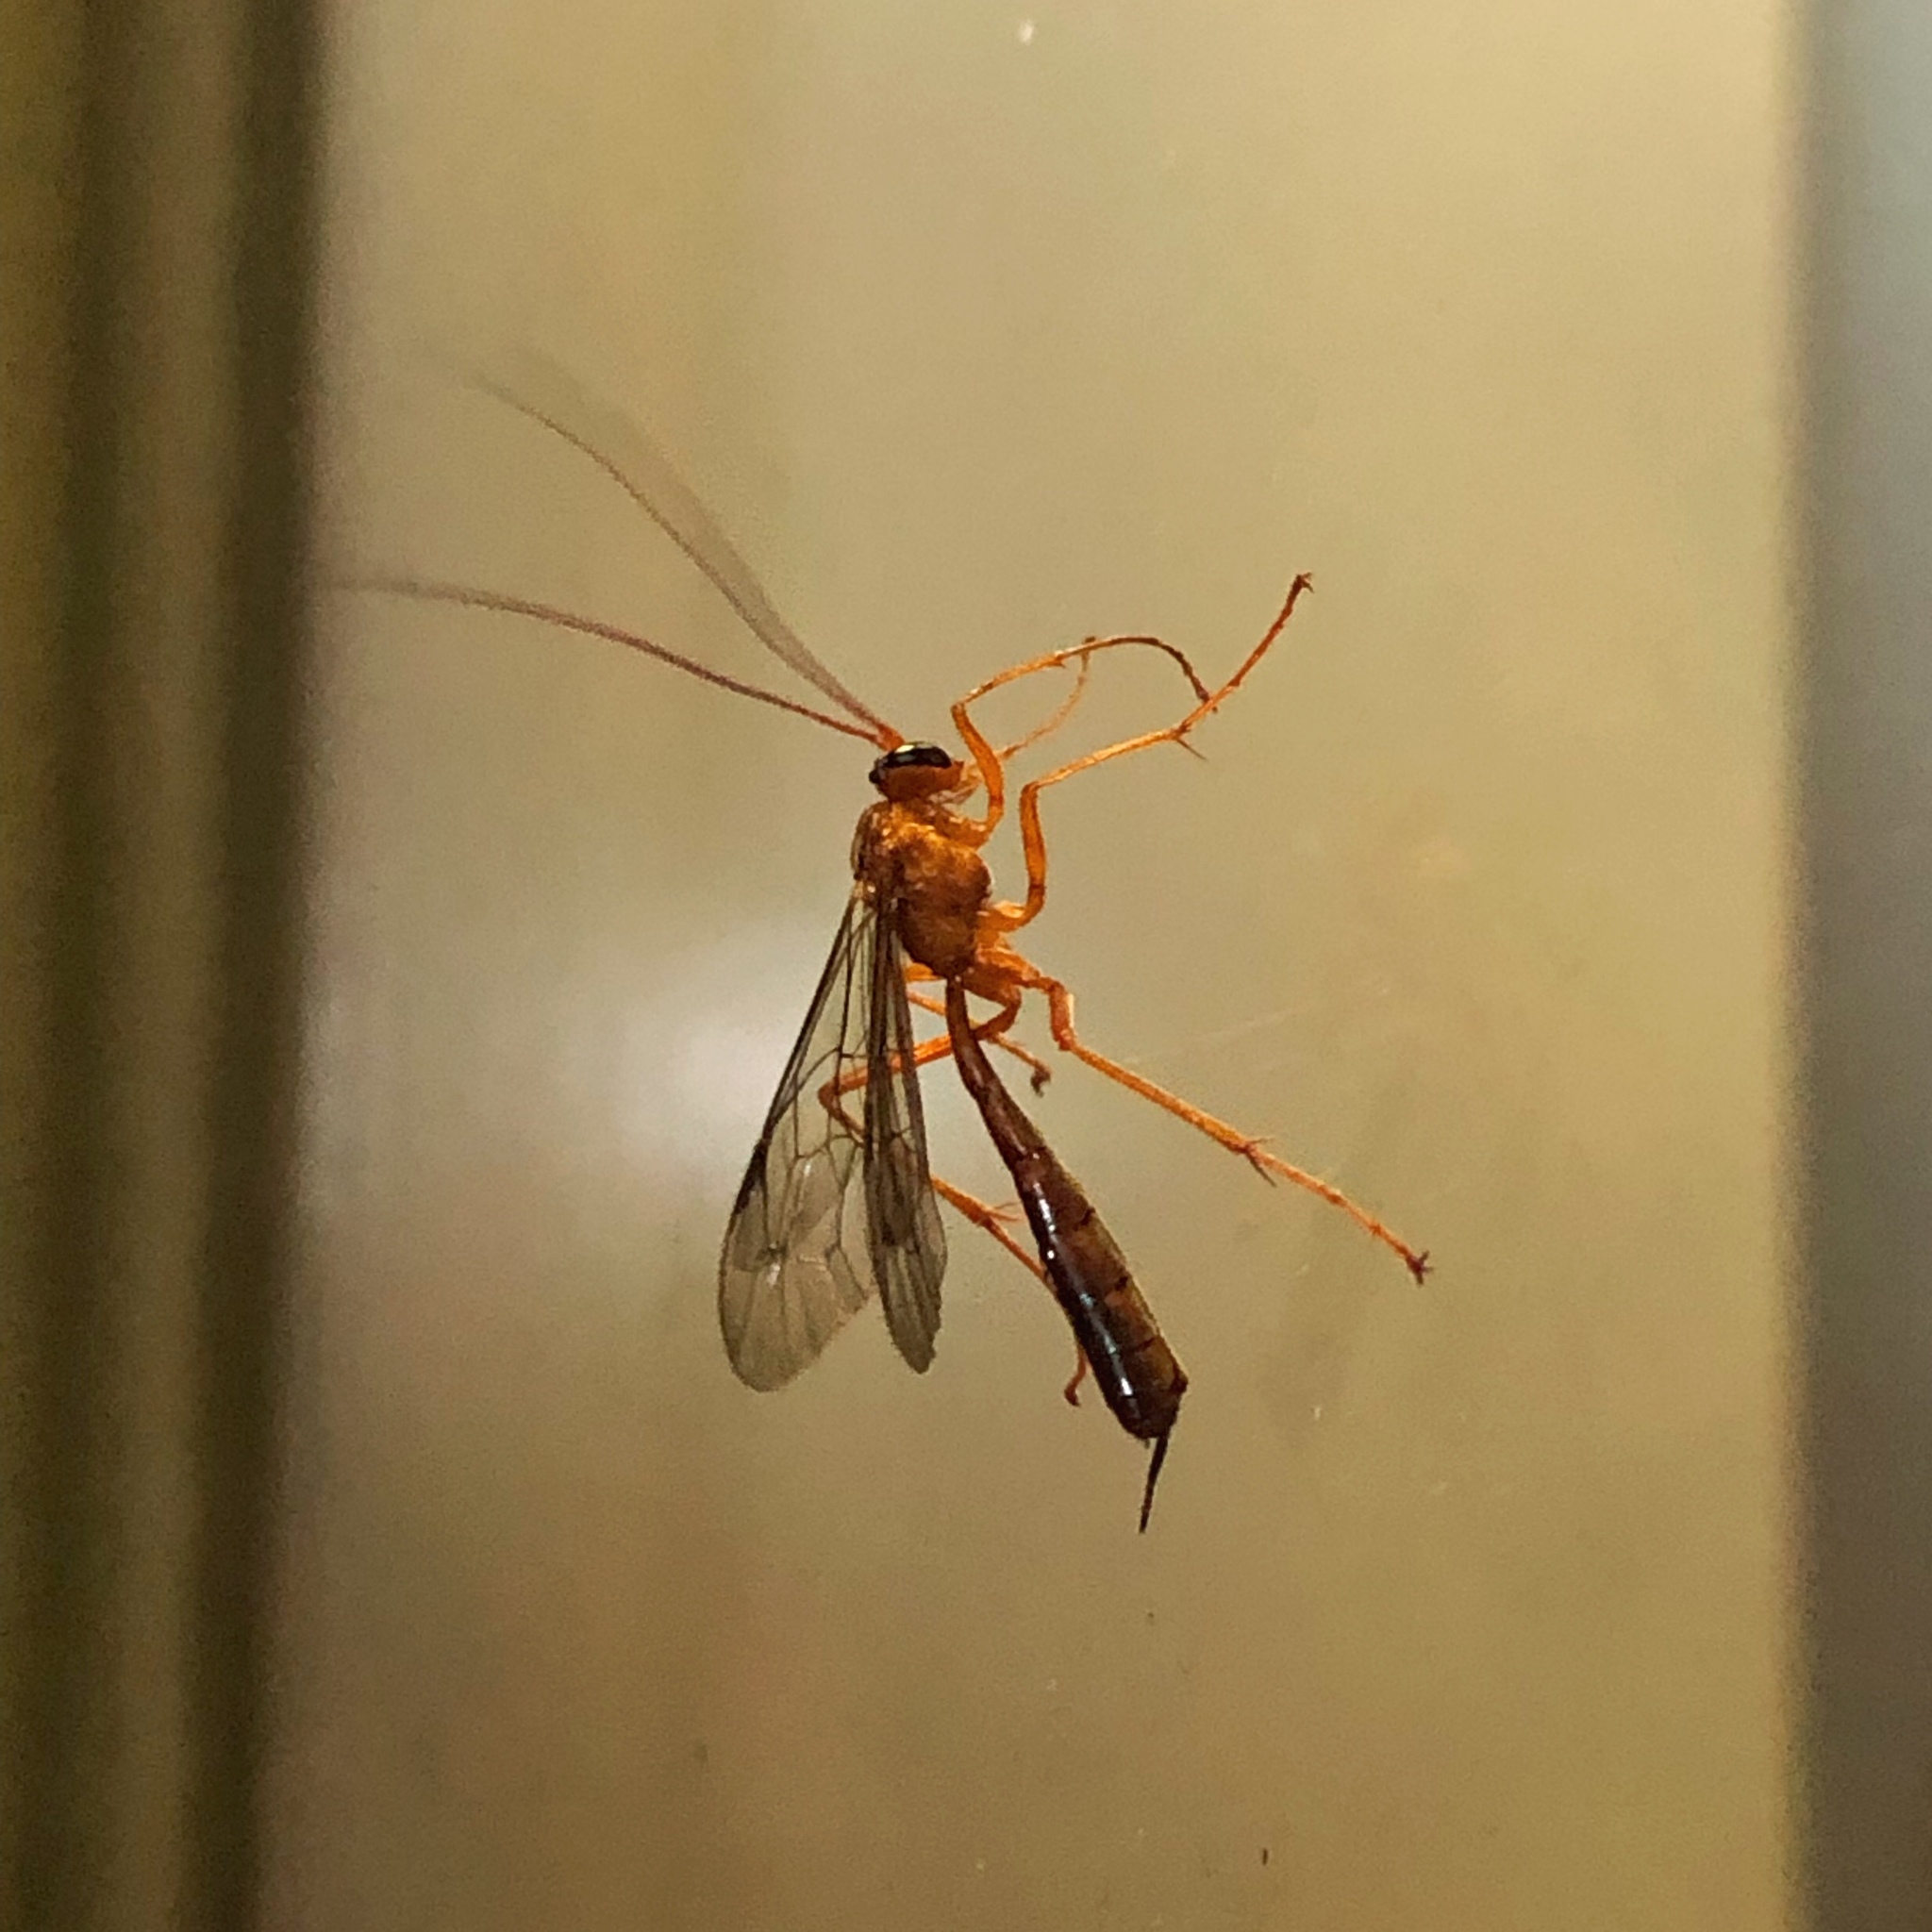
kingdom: Animalia
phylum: Arthropoda
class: Insecta
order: Hymenoptera
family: Ichneumonidae
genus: Netelia
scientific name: Netelia ephippiata
